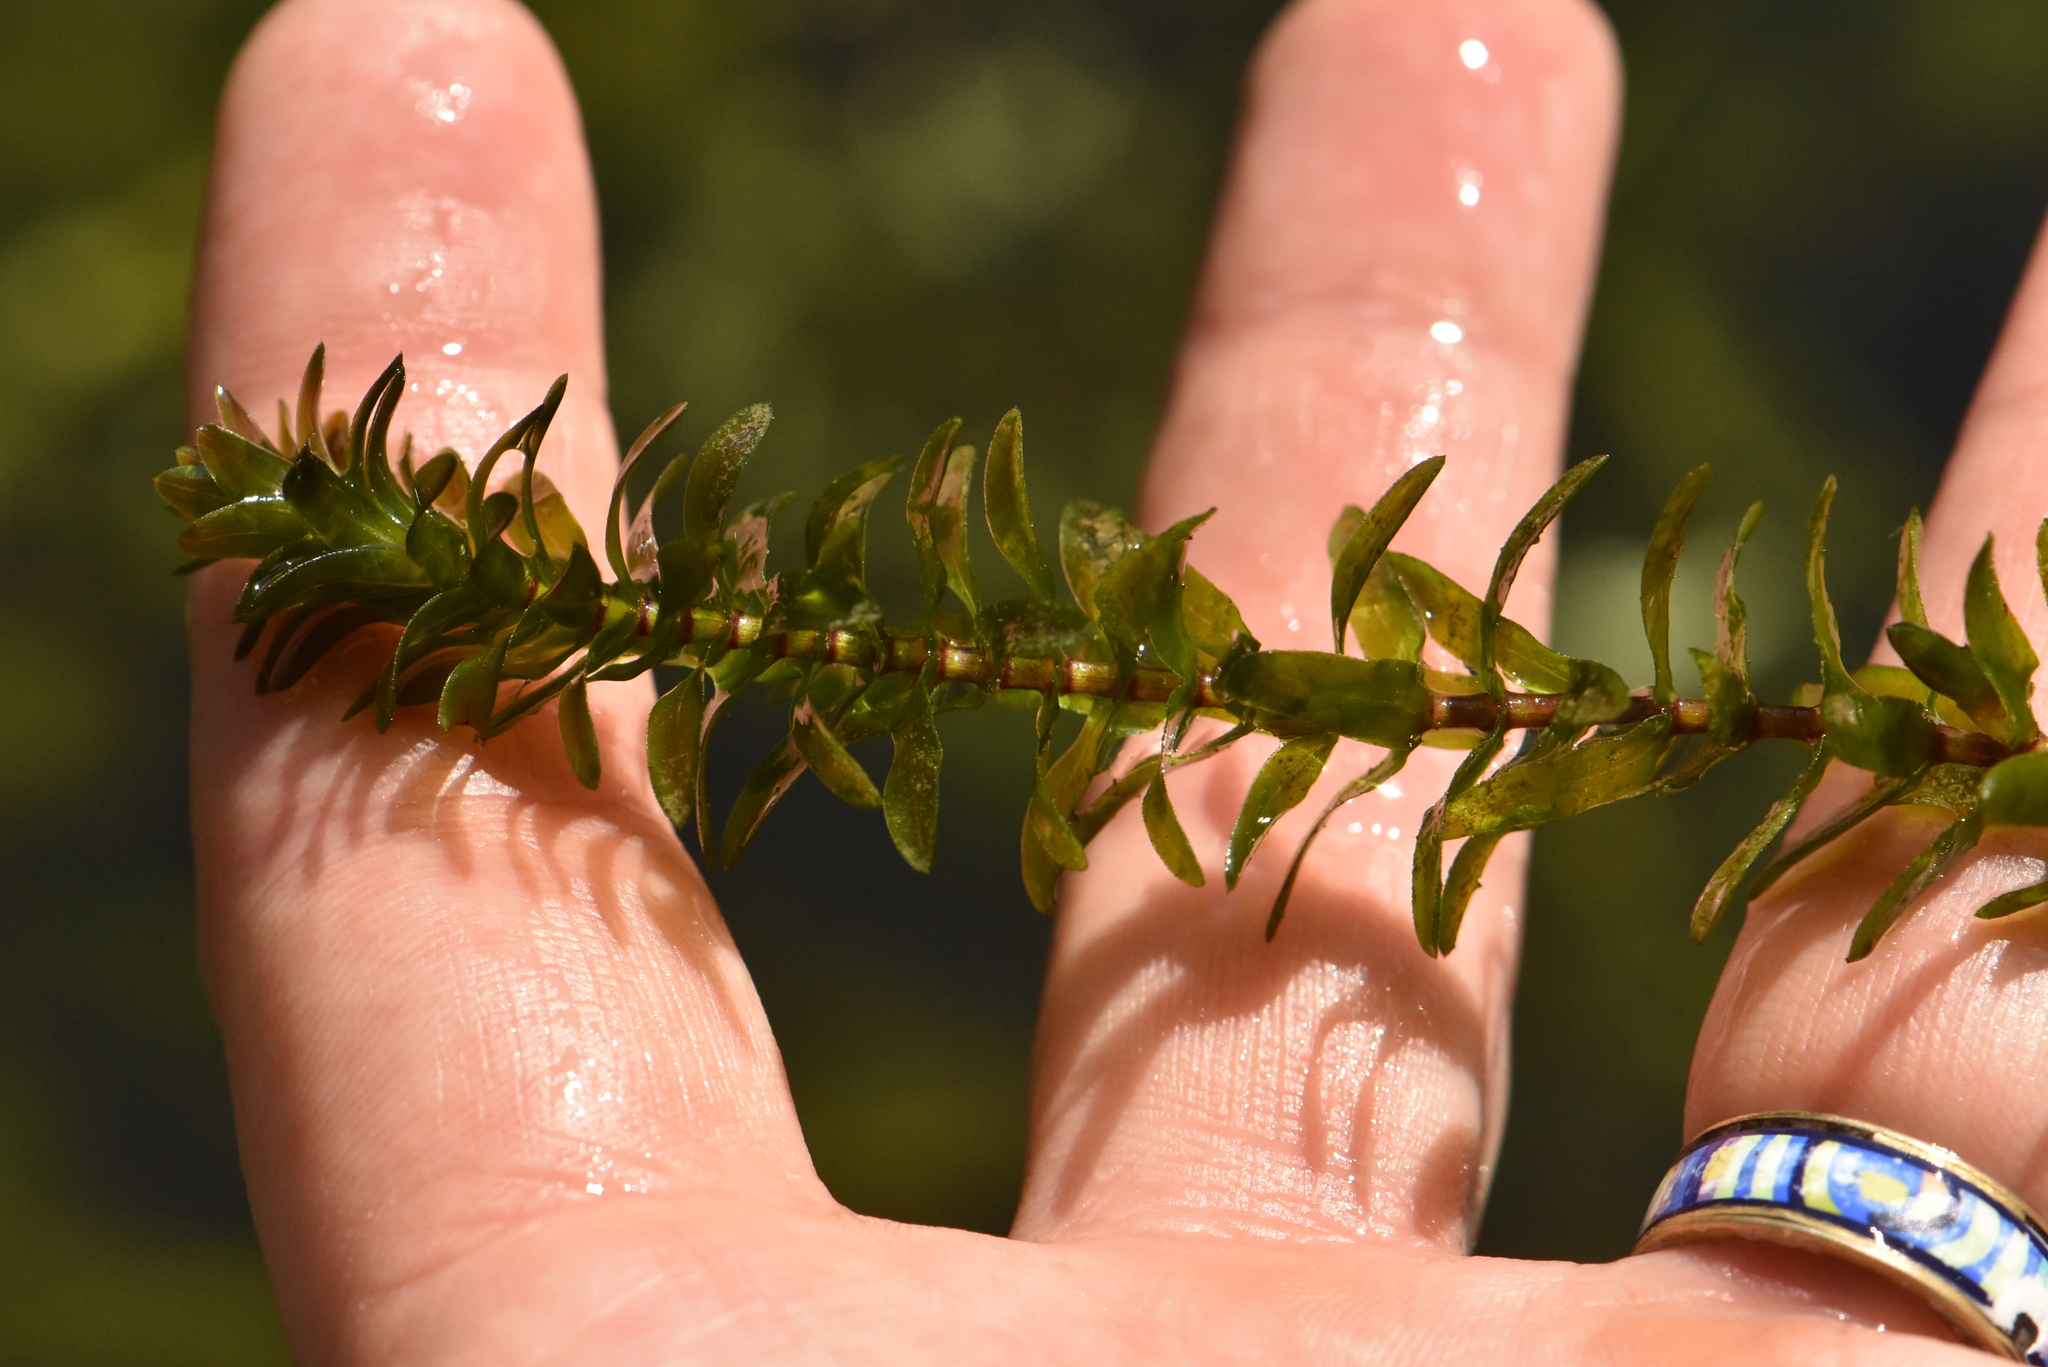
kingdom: Plantae
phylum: Tracheophyta
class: Liliopsida
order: Alismatales
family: Hydrocharitaceae
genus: Elodea
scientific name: Elodea canadensis
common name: Canadian waterweed
